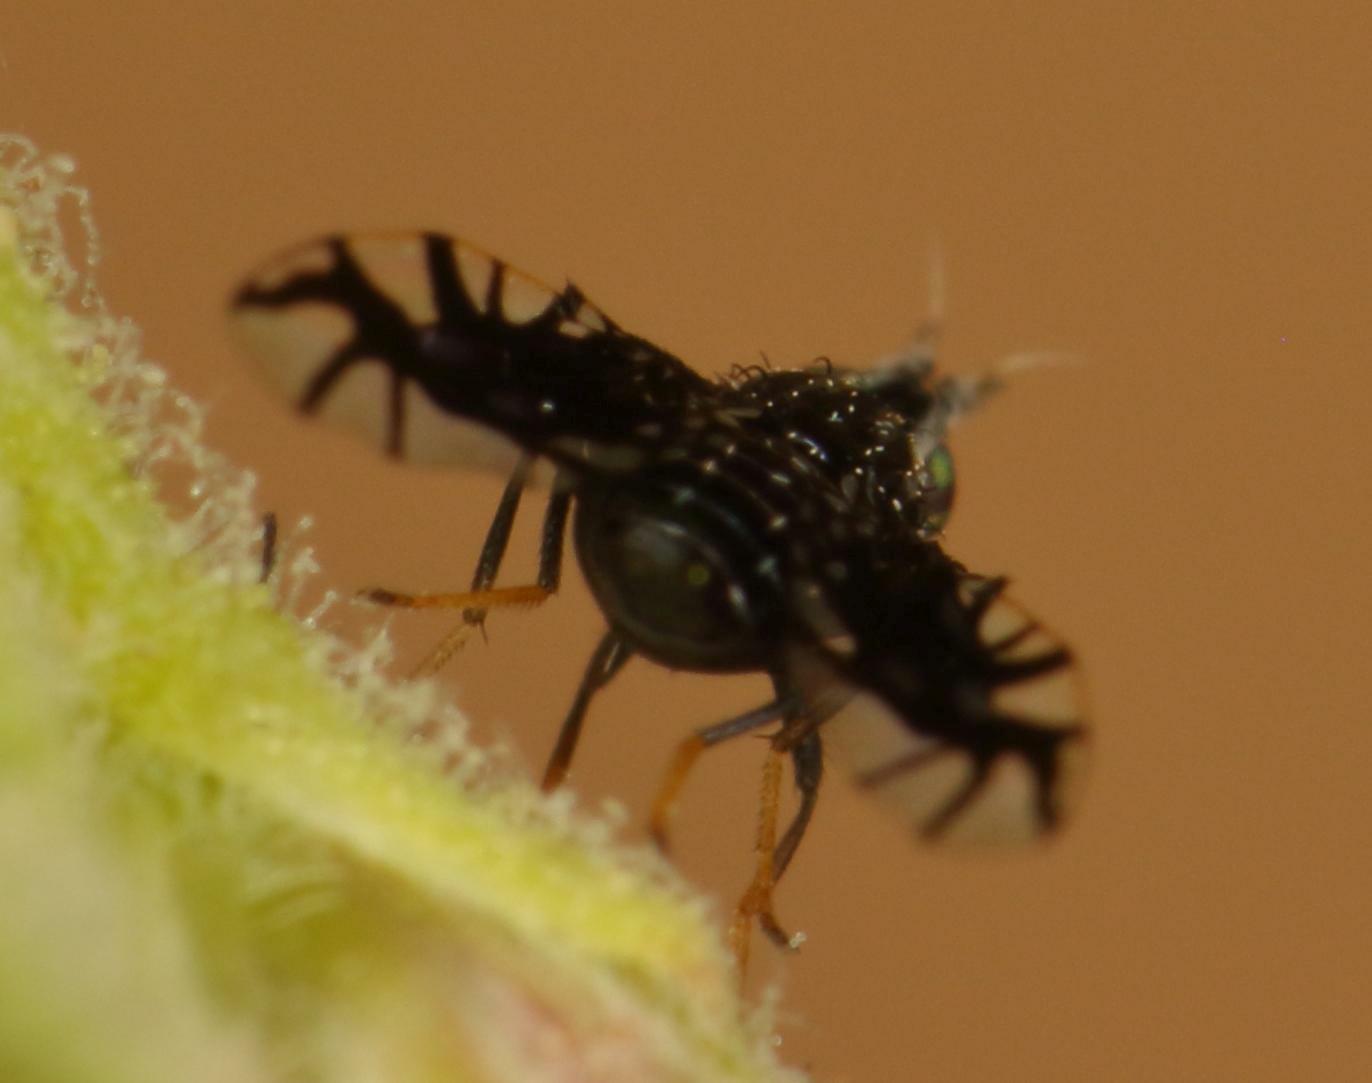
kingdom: Animalia
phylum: Arthropoda
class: Insecta
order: Diptera
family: Tephritidae
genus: Brachiopterna
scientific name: Brachiopterna ornithomorpha
